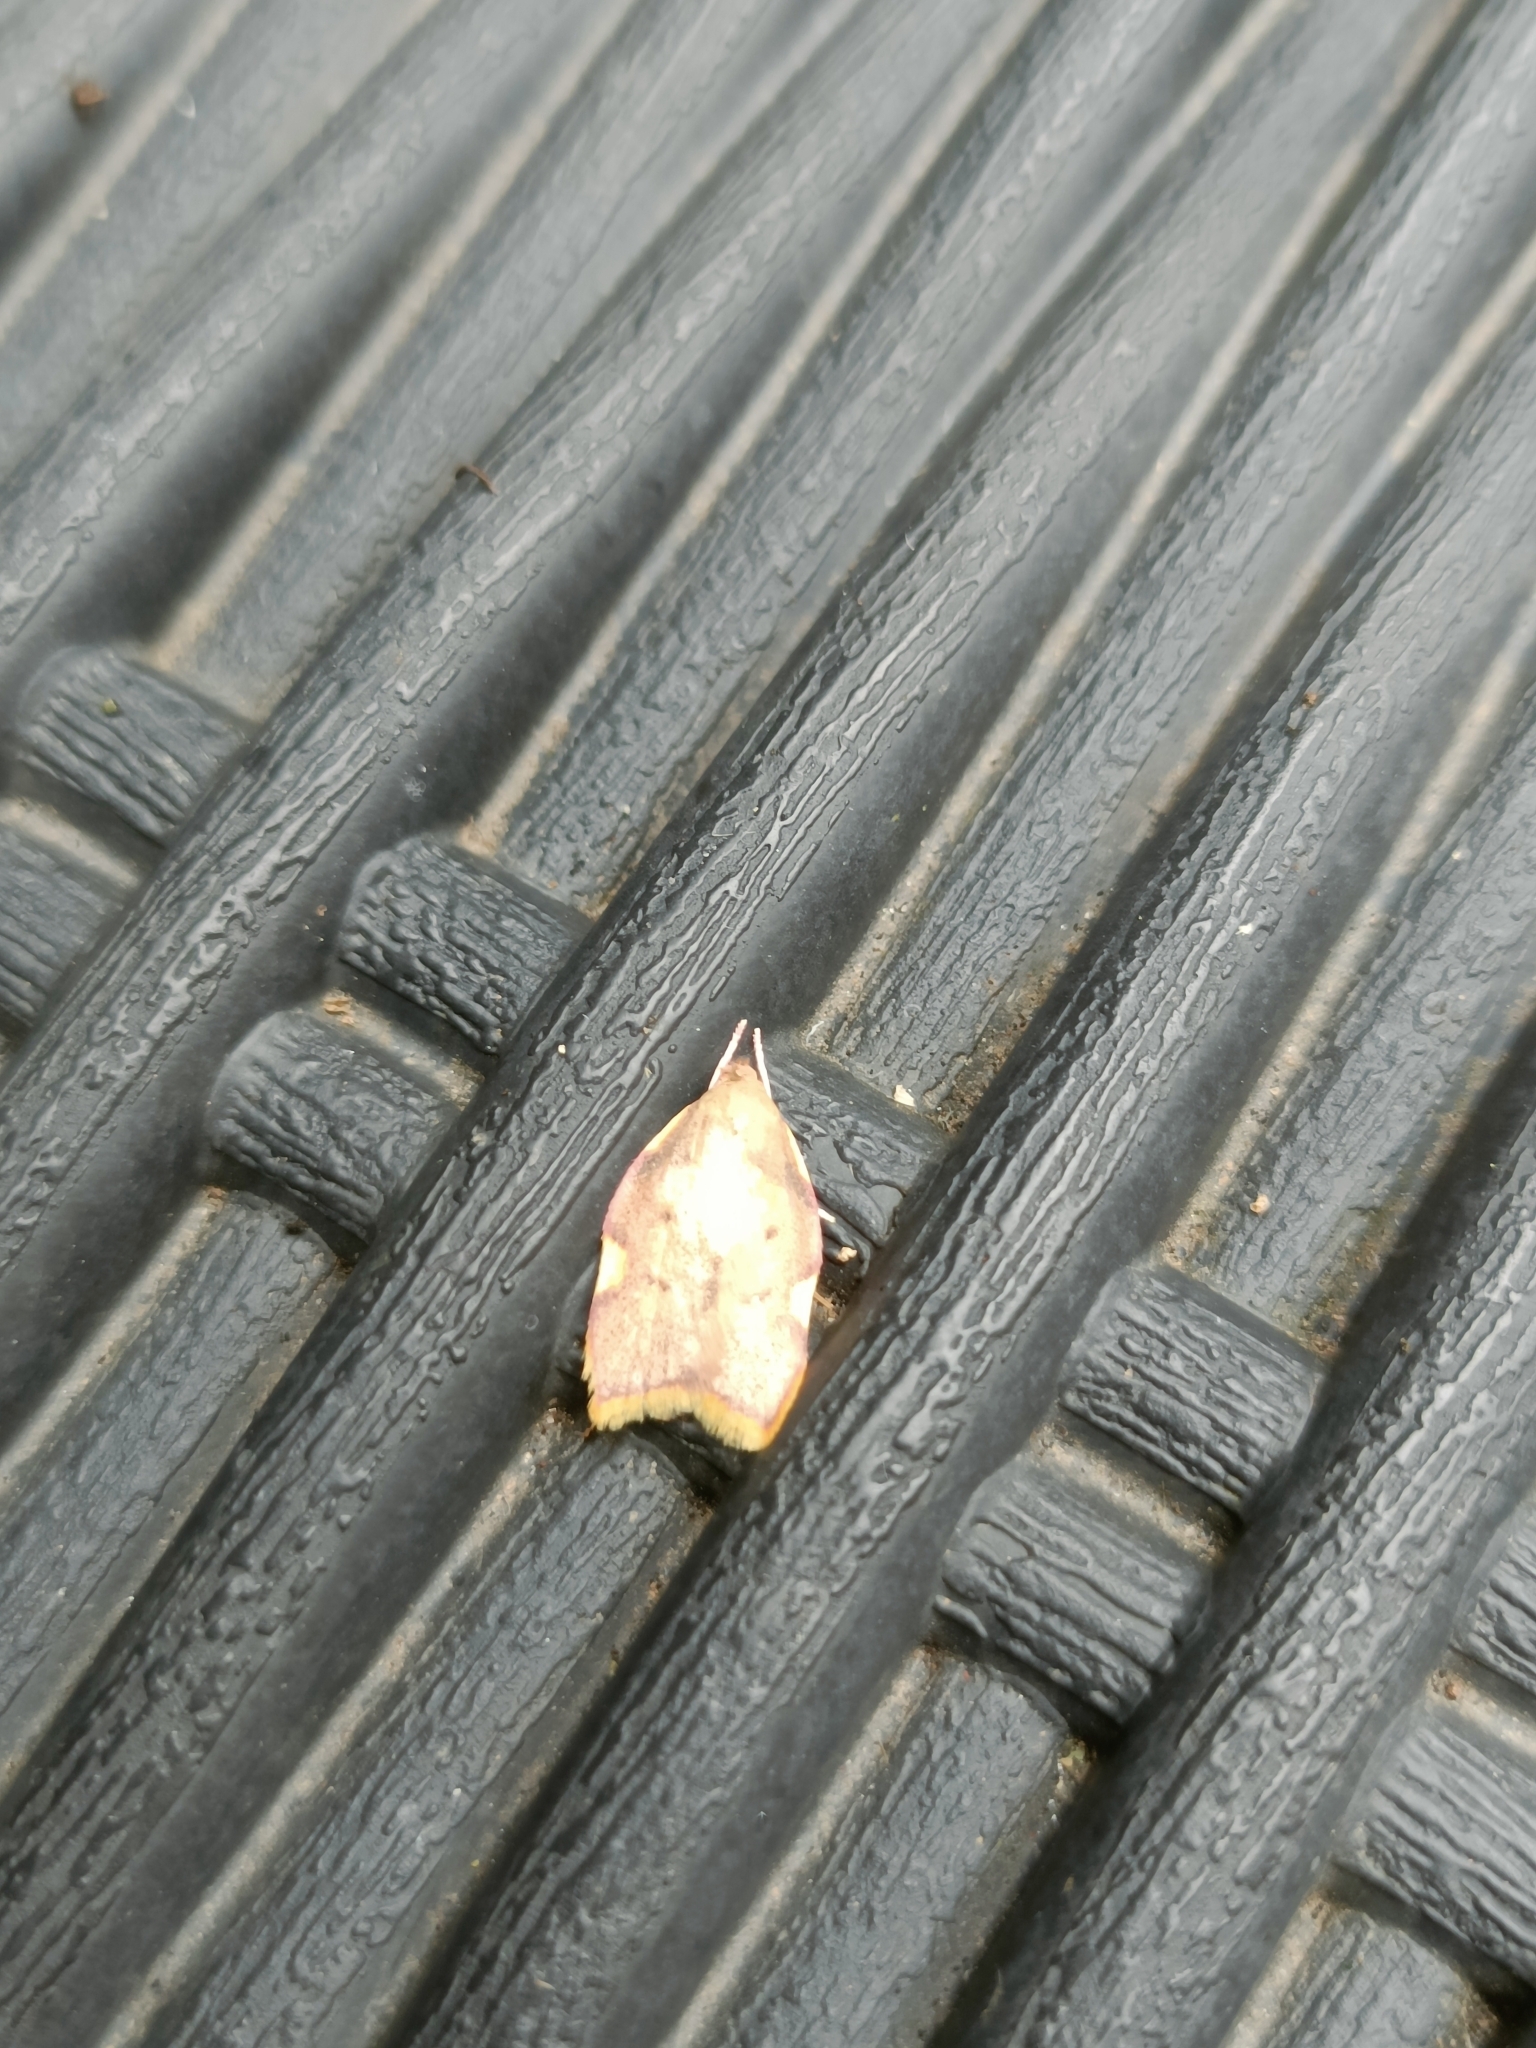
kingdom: Animalia
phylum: Arthropoda
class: Insecta
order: Lepidoptera
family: Peleopodidae
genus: Carcina
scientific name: Carcina quercana
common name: Moth
